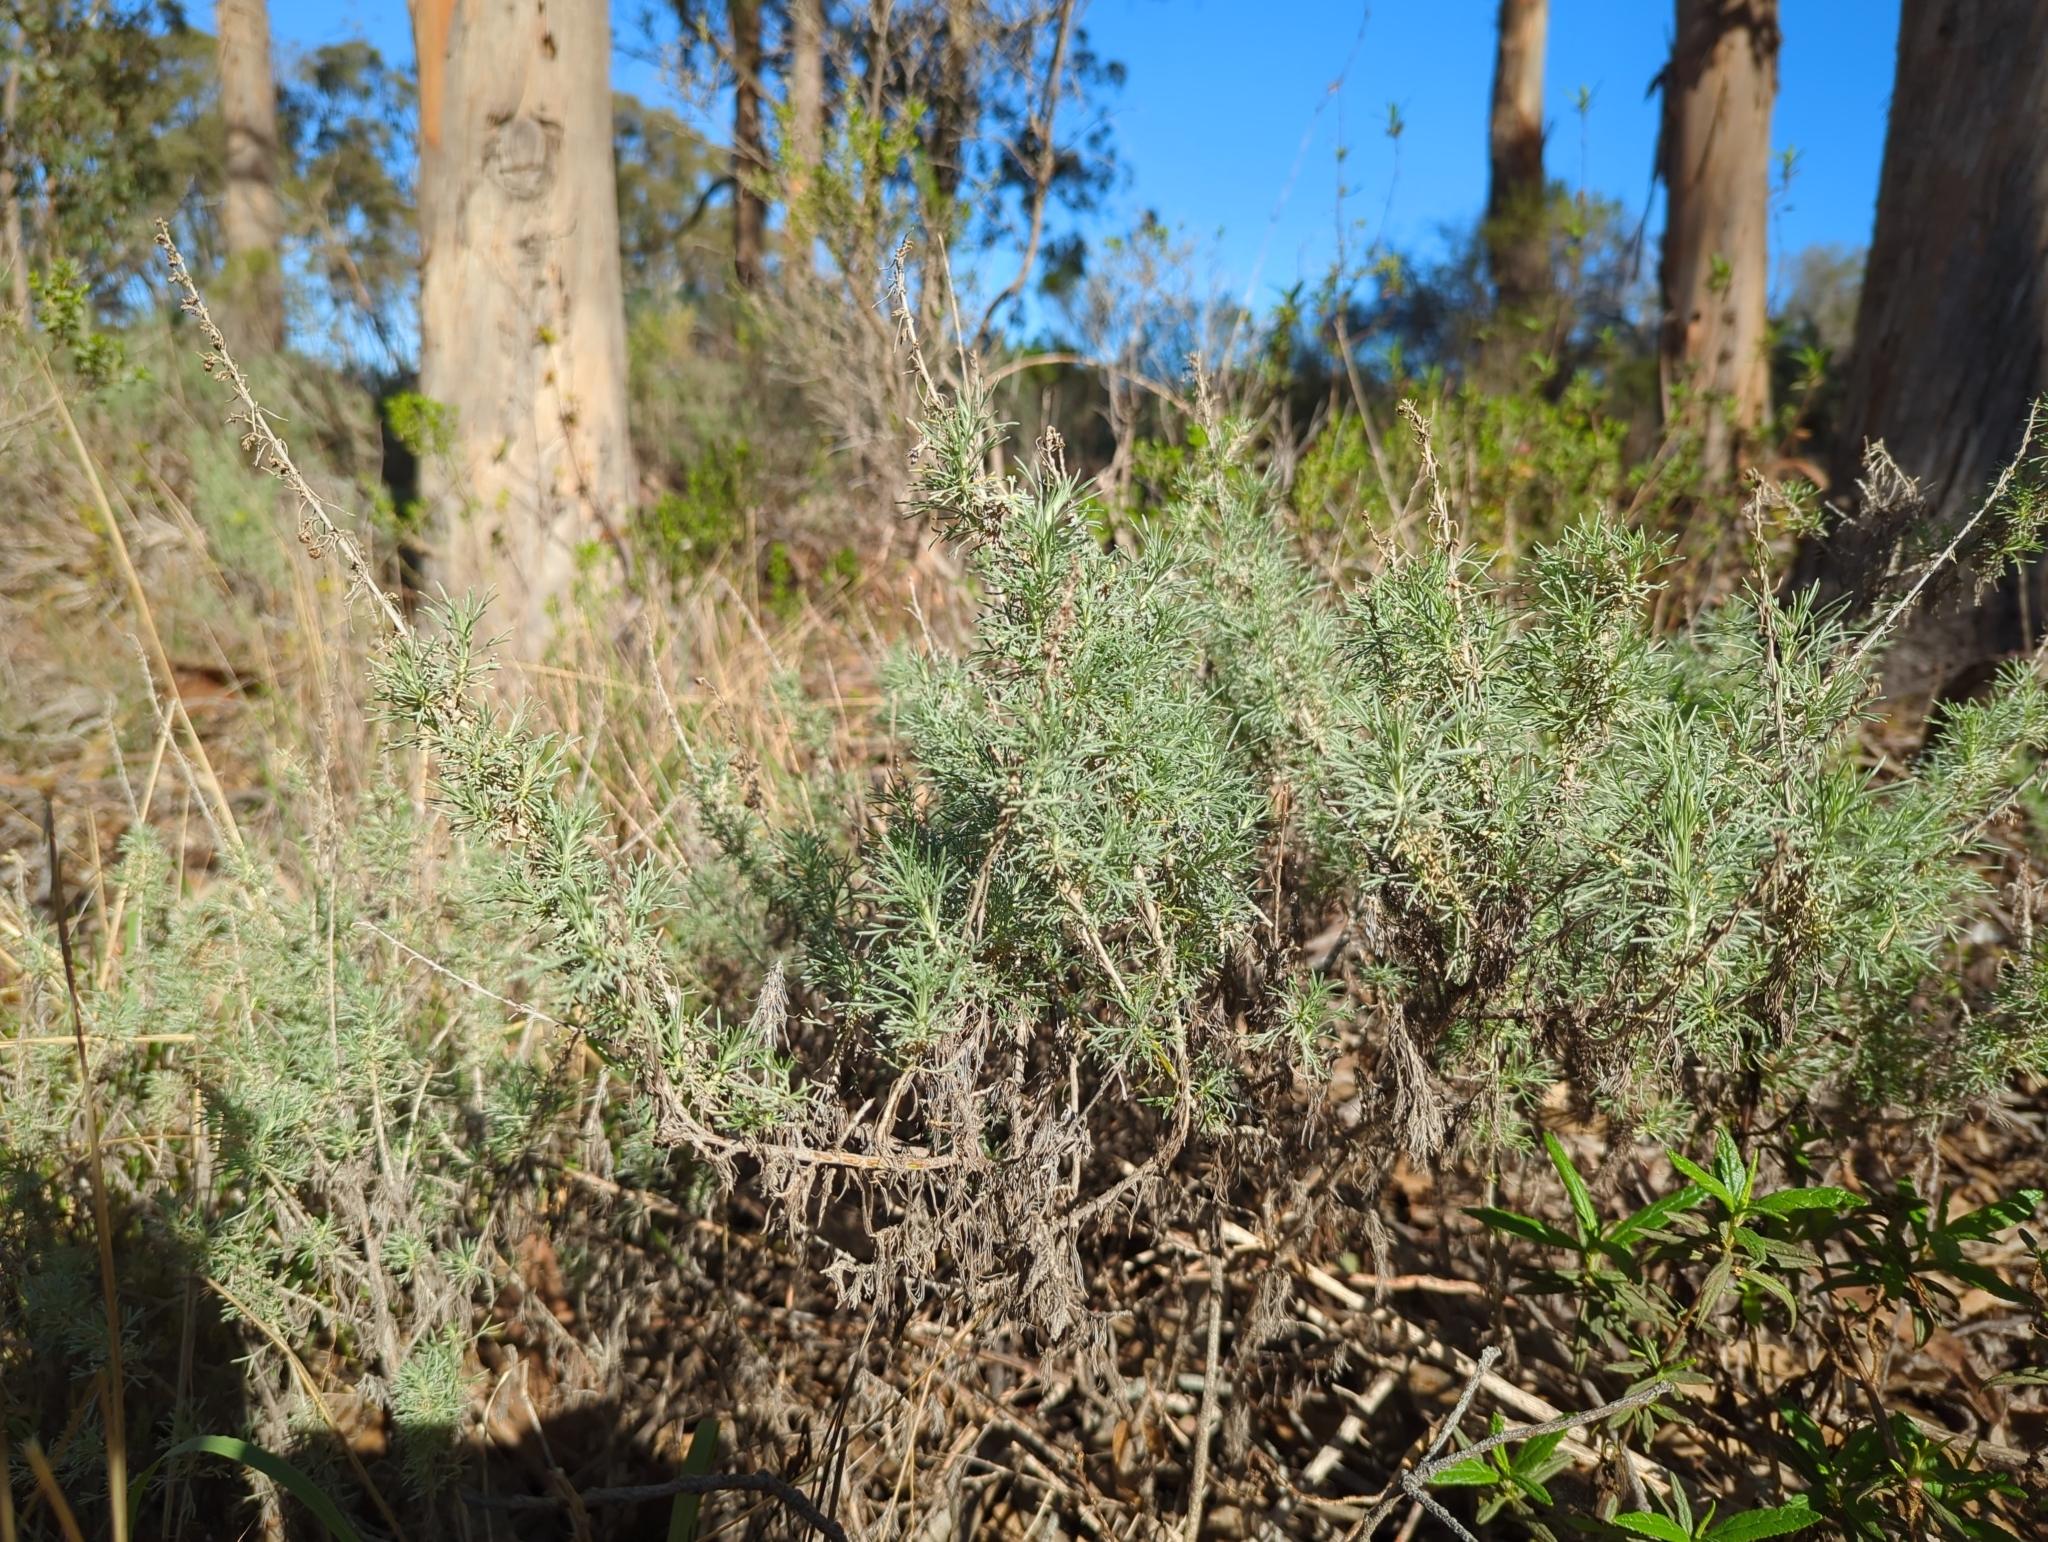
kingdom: Plantae
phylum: Tracheophyta
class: Magnoliopsida
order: Asterales
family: Asteraceae
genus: Artemisia
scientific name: Artemisia californica
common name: California sagebrush
